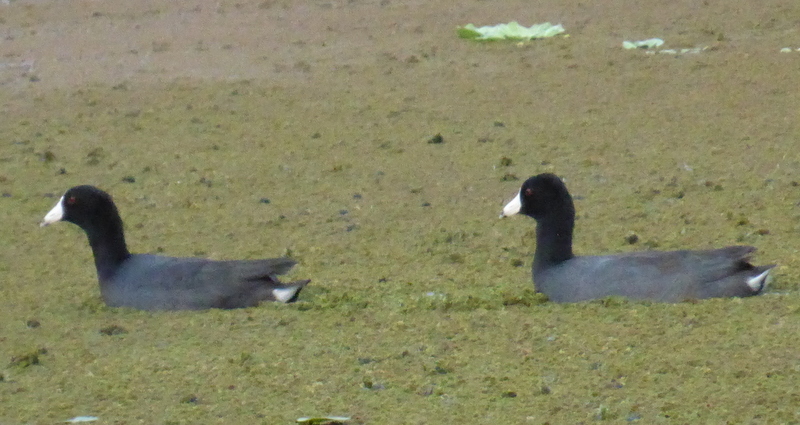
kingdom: Animalia
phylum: Chordata
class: Aves
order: Gruiformes
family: Rallidae
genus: Fulica
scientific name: Fulica americana
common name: American coot
